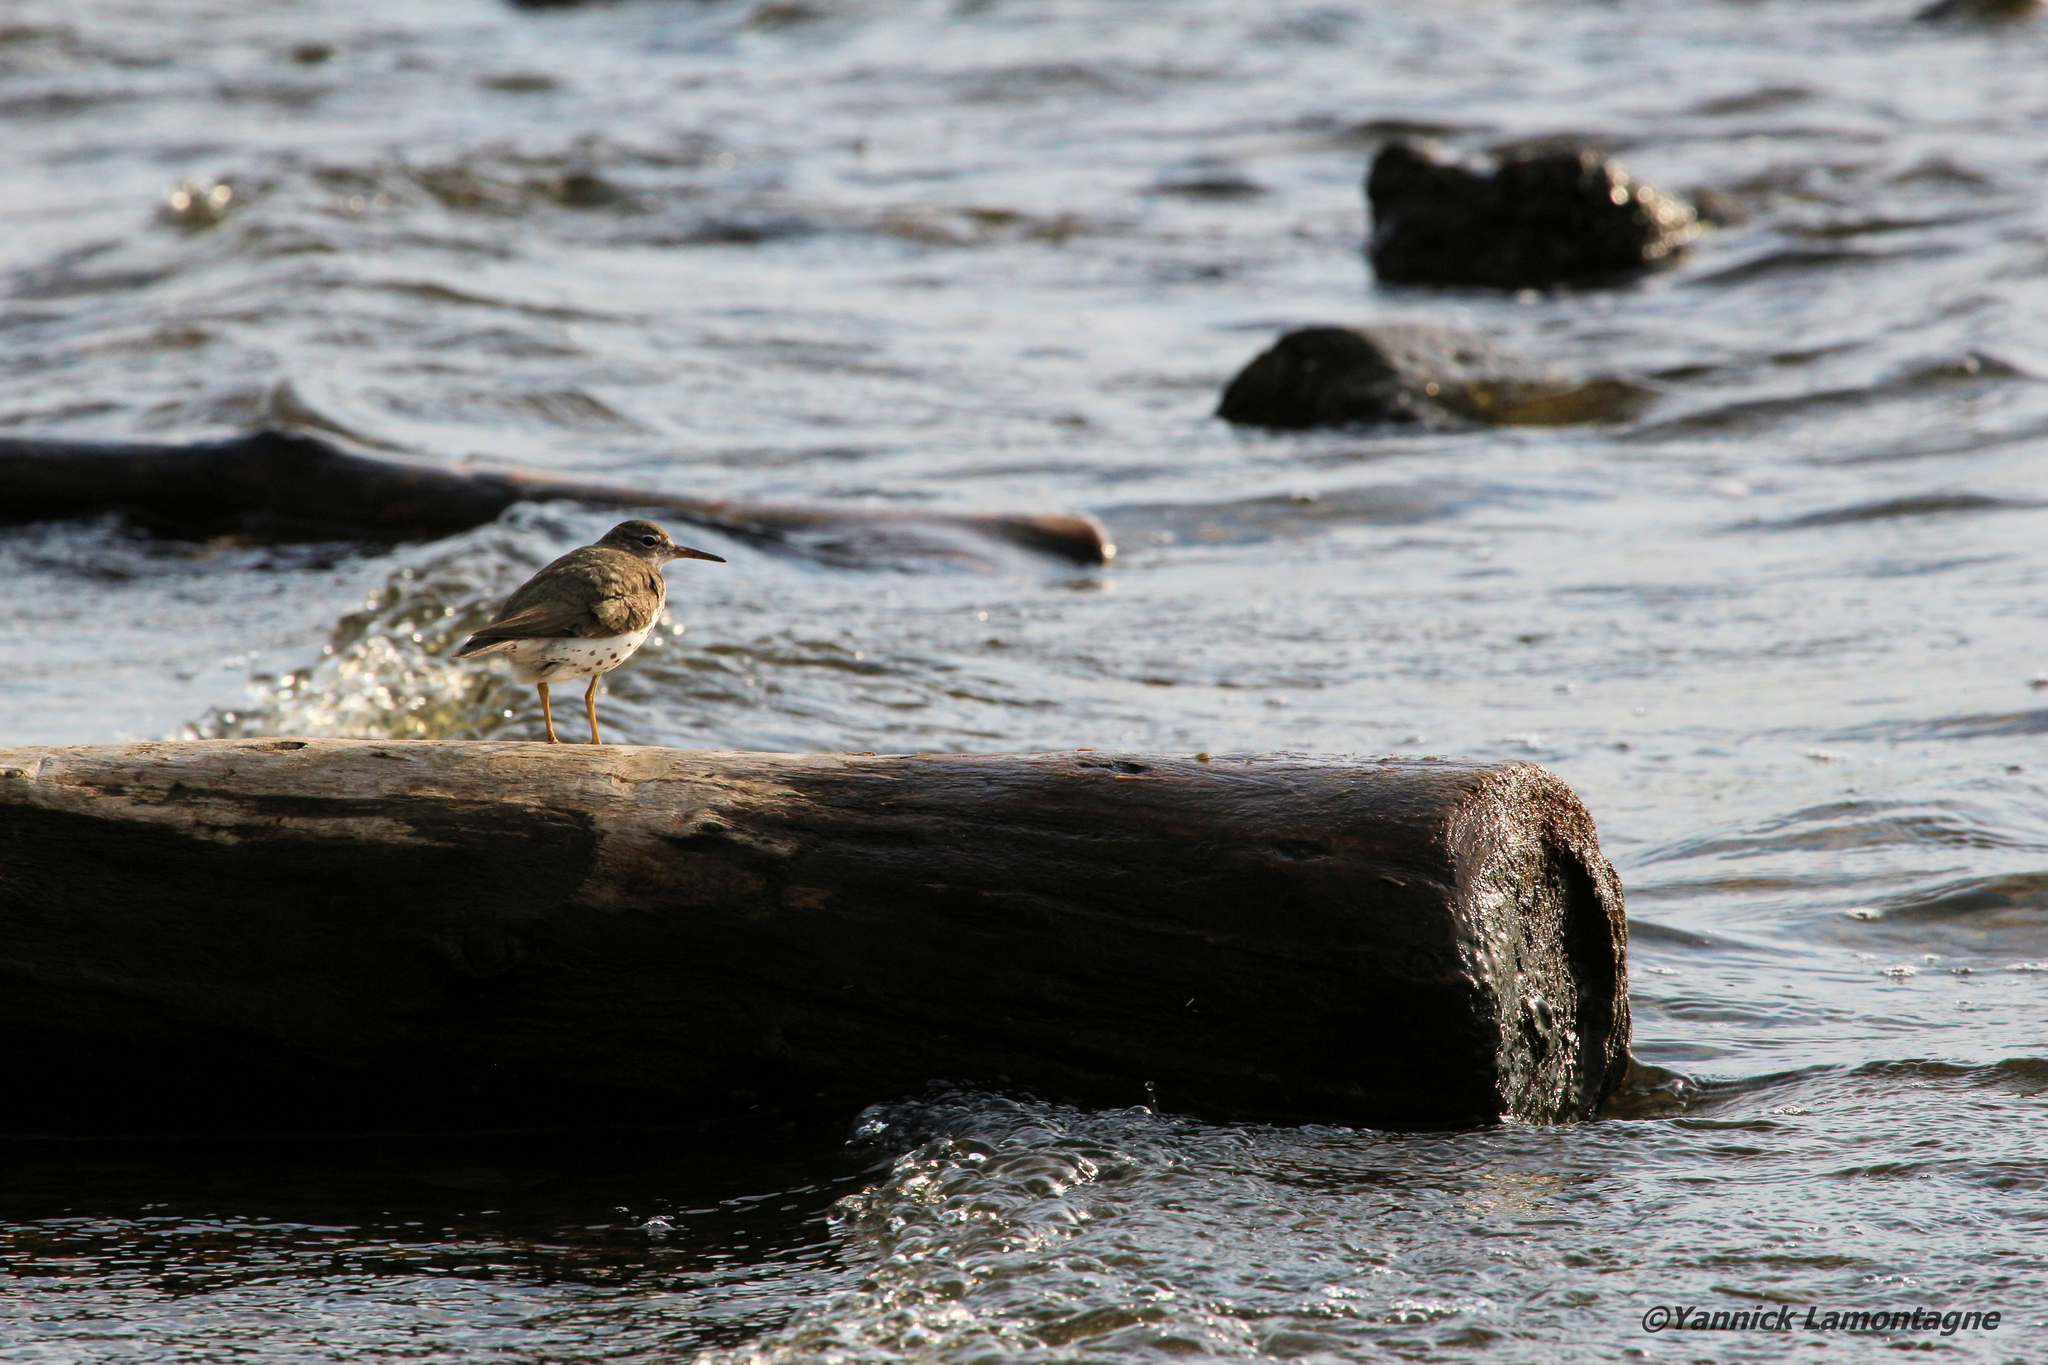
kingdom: Animalia
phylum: Chordata
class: Aves
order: Charadriiformes
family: Scolopacidae
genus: Actitis
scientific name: Actitis macularius
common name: Spotted sandpiper
